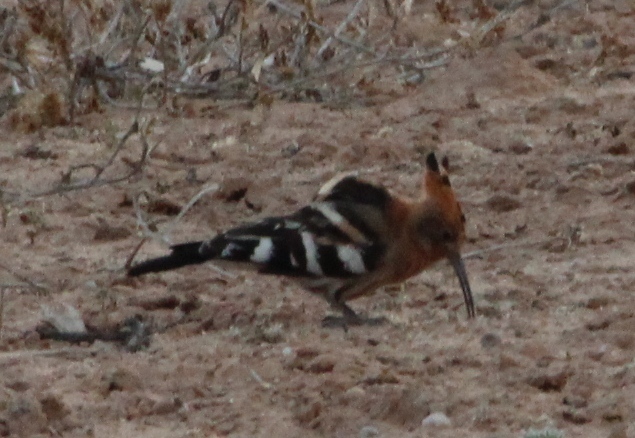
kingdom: Animalia
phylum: Chordata
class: Aves
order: Bucerotiformes
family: Upupidae
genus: Upupa
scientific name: Upupa africana
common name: African hoopoe
